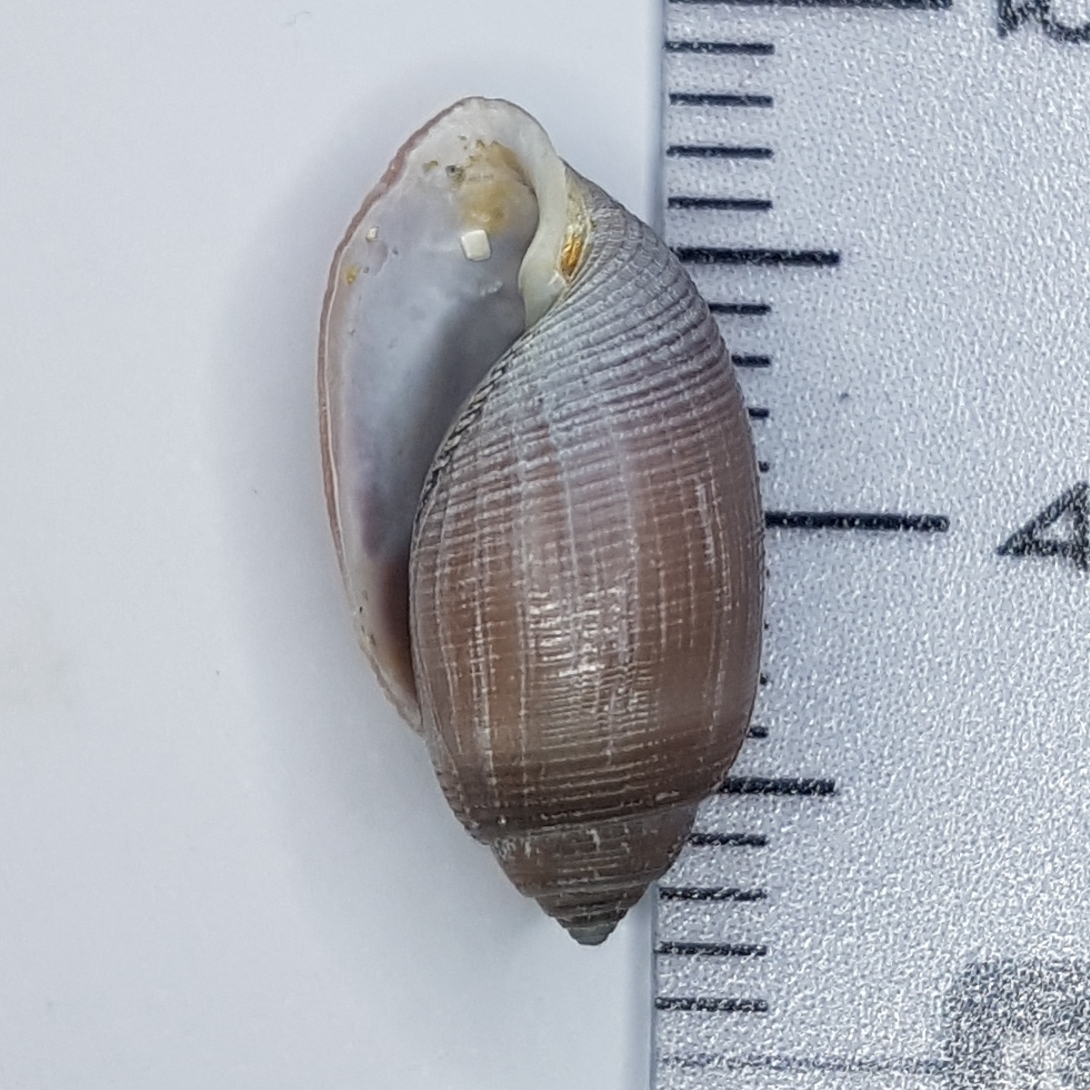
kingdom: Animalia
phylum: Mollusca
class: Gastropoda
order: Cephalaspidea
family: Acteonidae
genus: Acteon
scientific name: Acteon tornatilis
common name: European acteon
